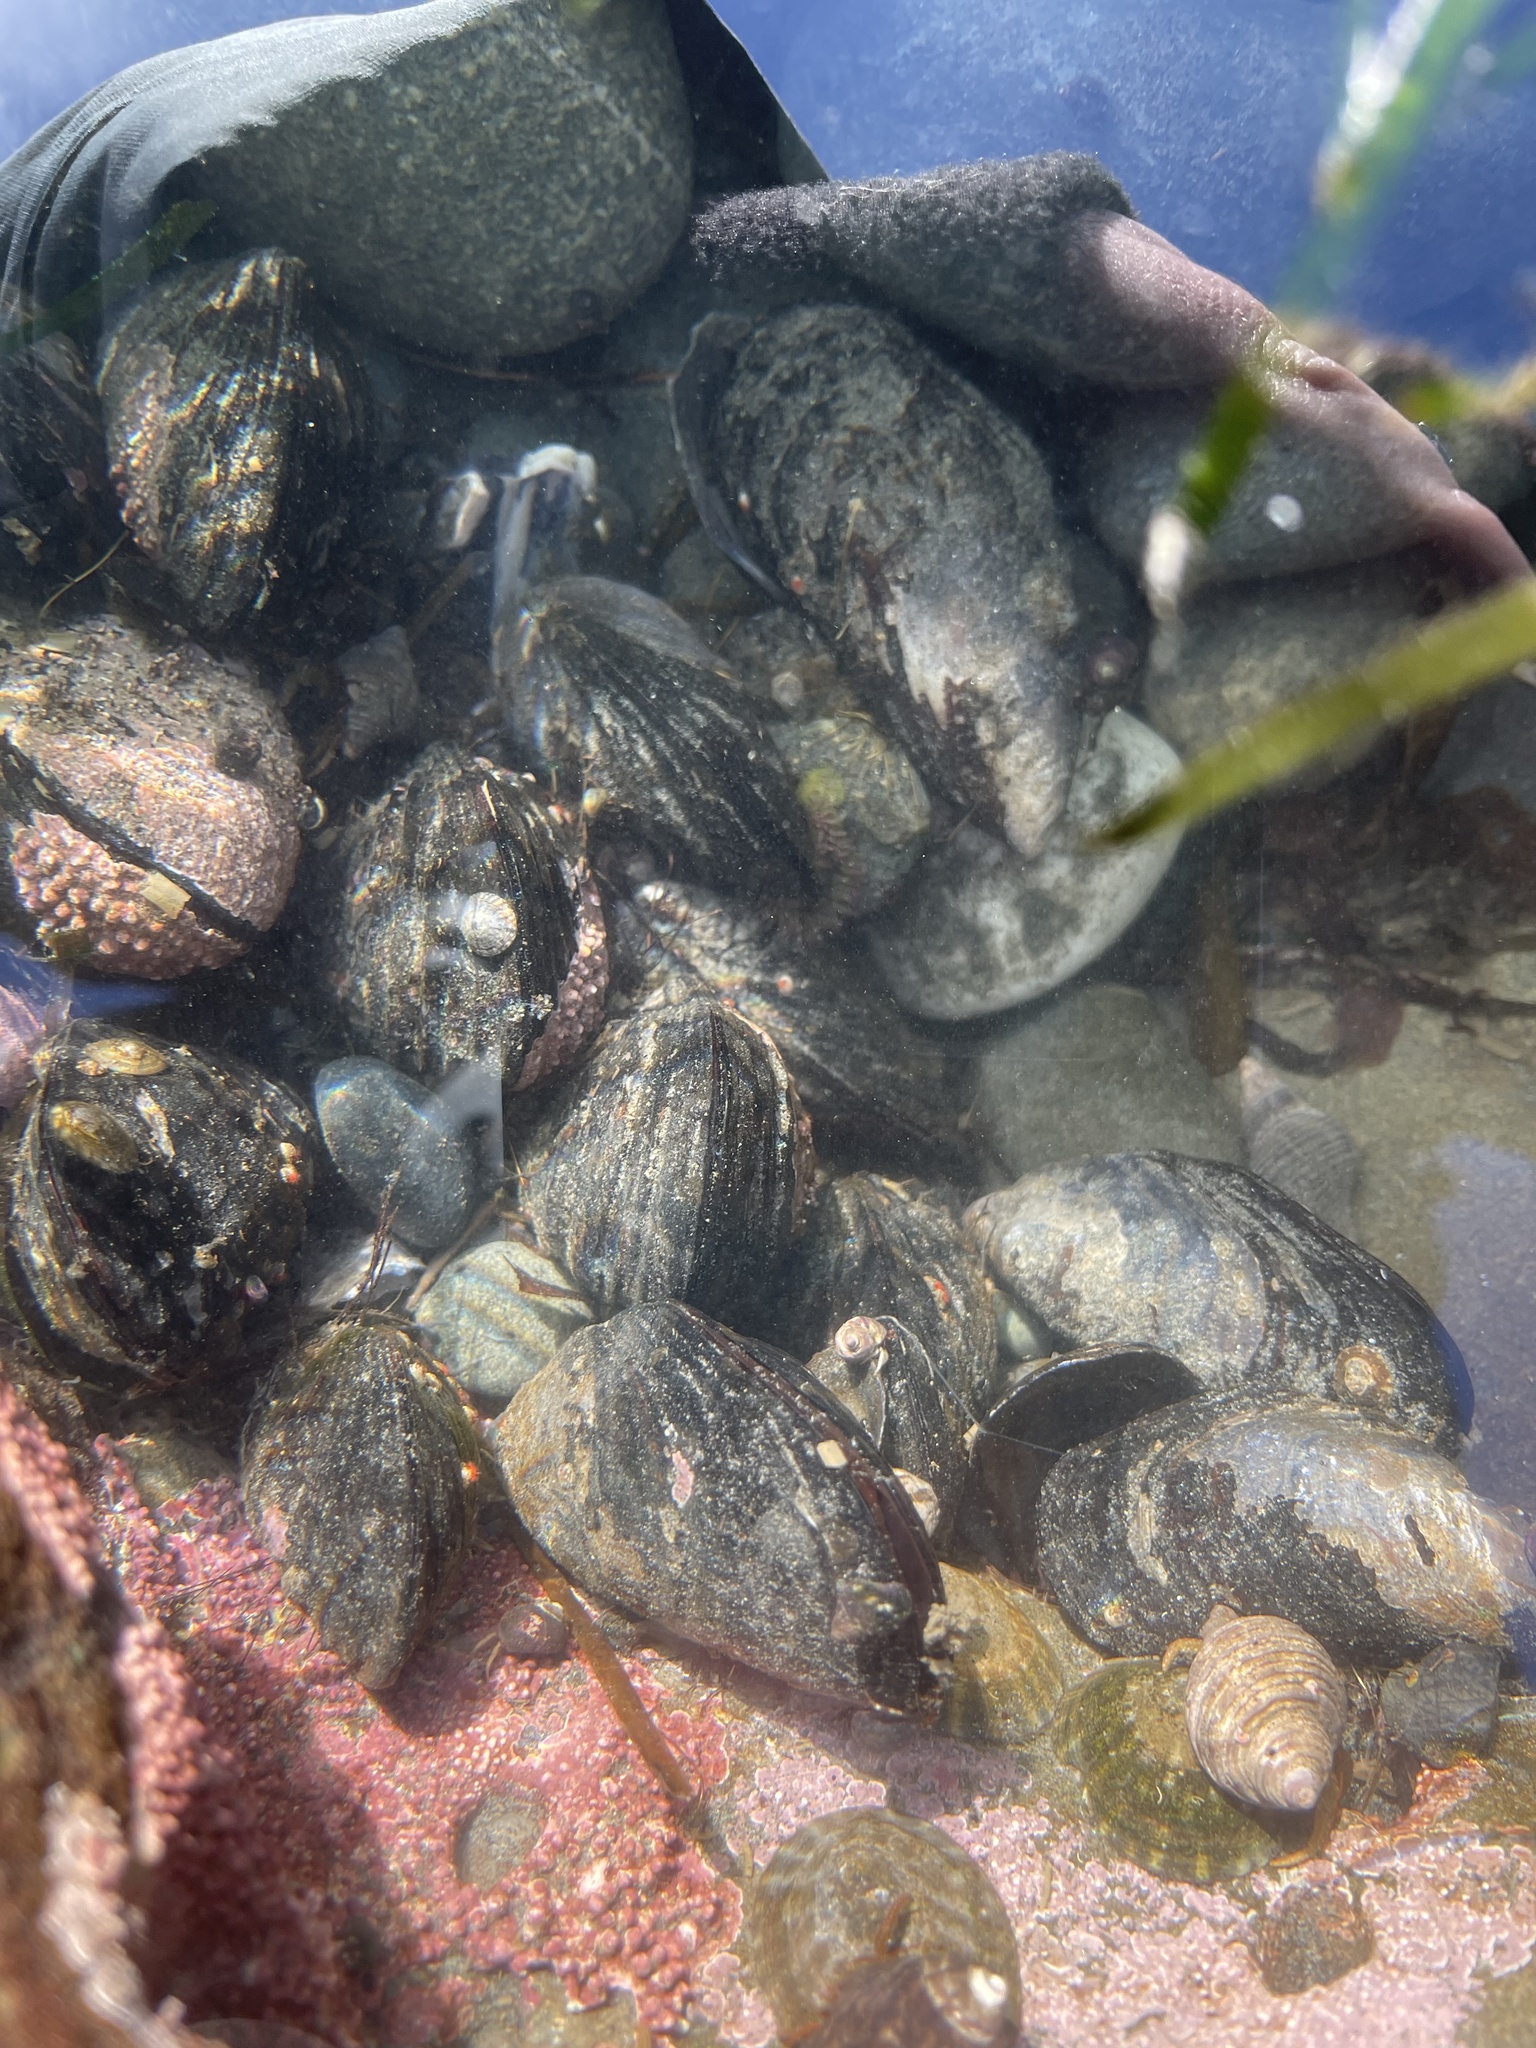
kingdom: Animalia
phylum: Mollusca
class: Bivalvia
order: Mytilida
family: Mytilidae
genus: Mytilus
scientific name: Mytilus californianus
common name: California mussel
